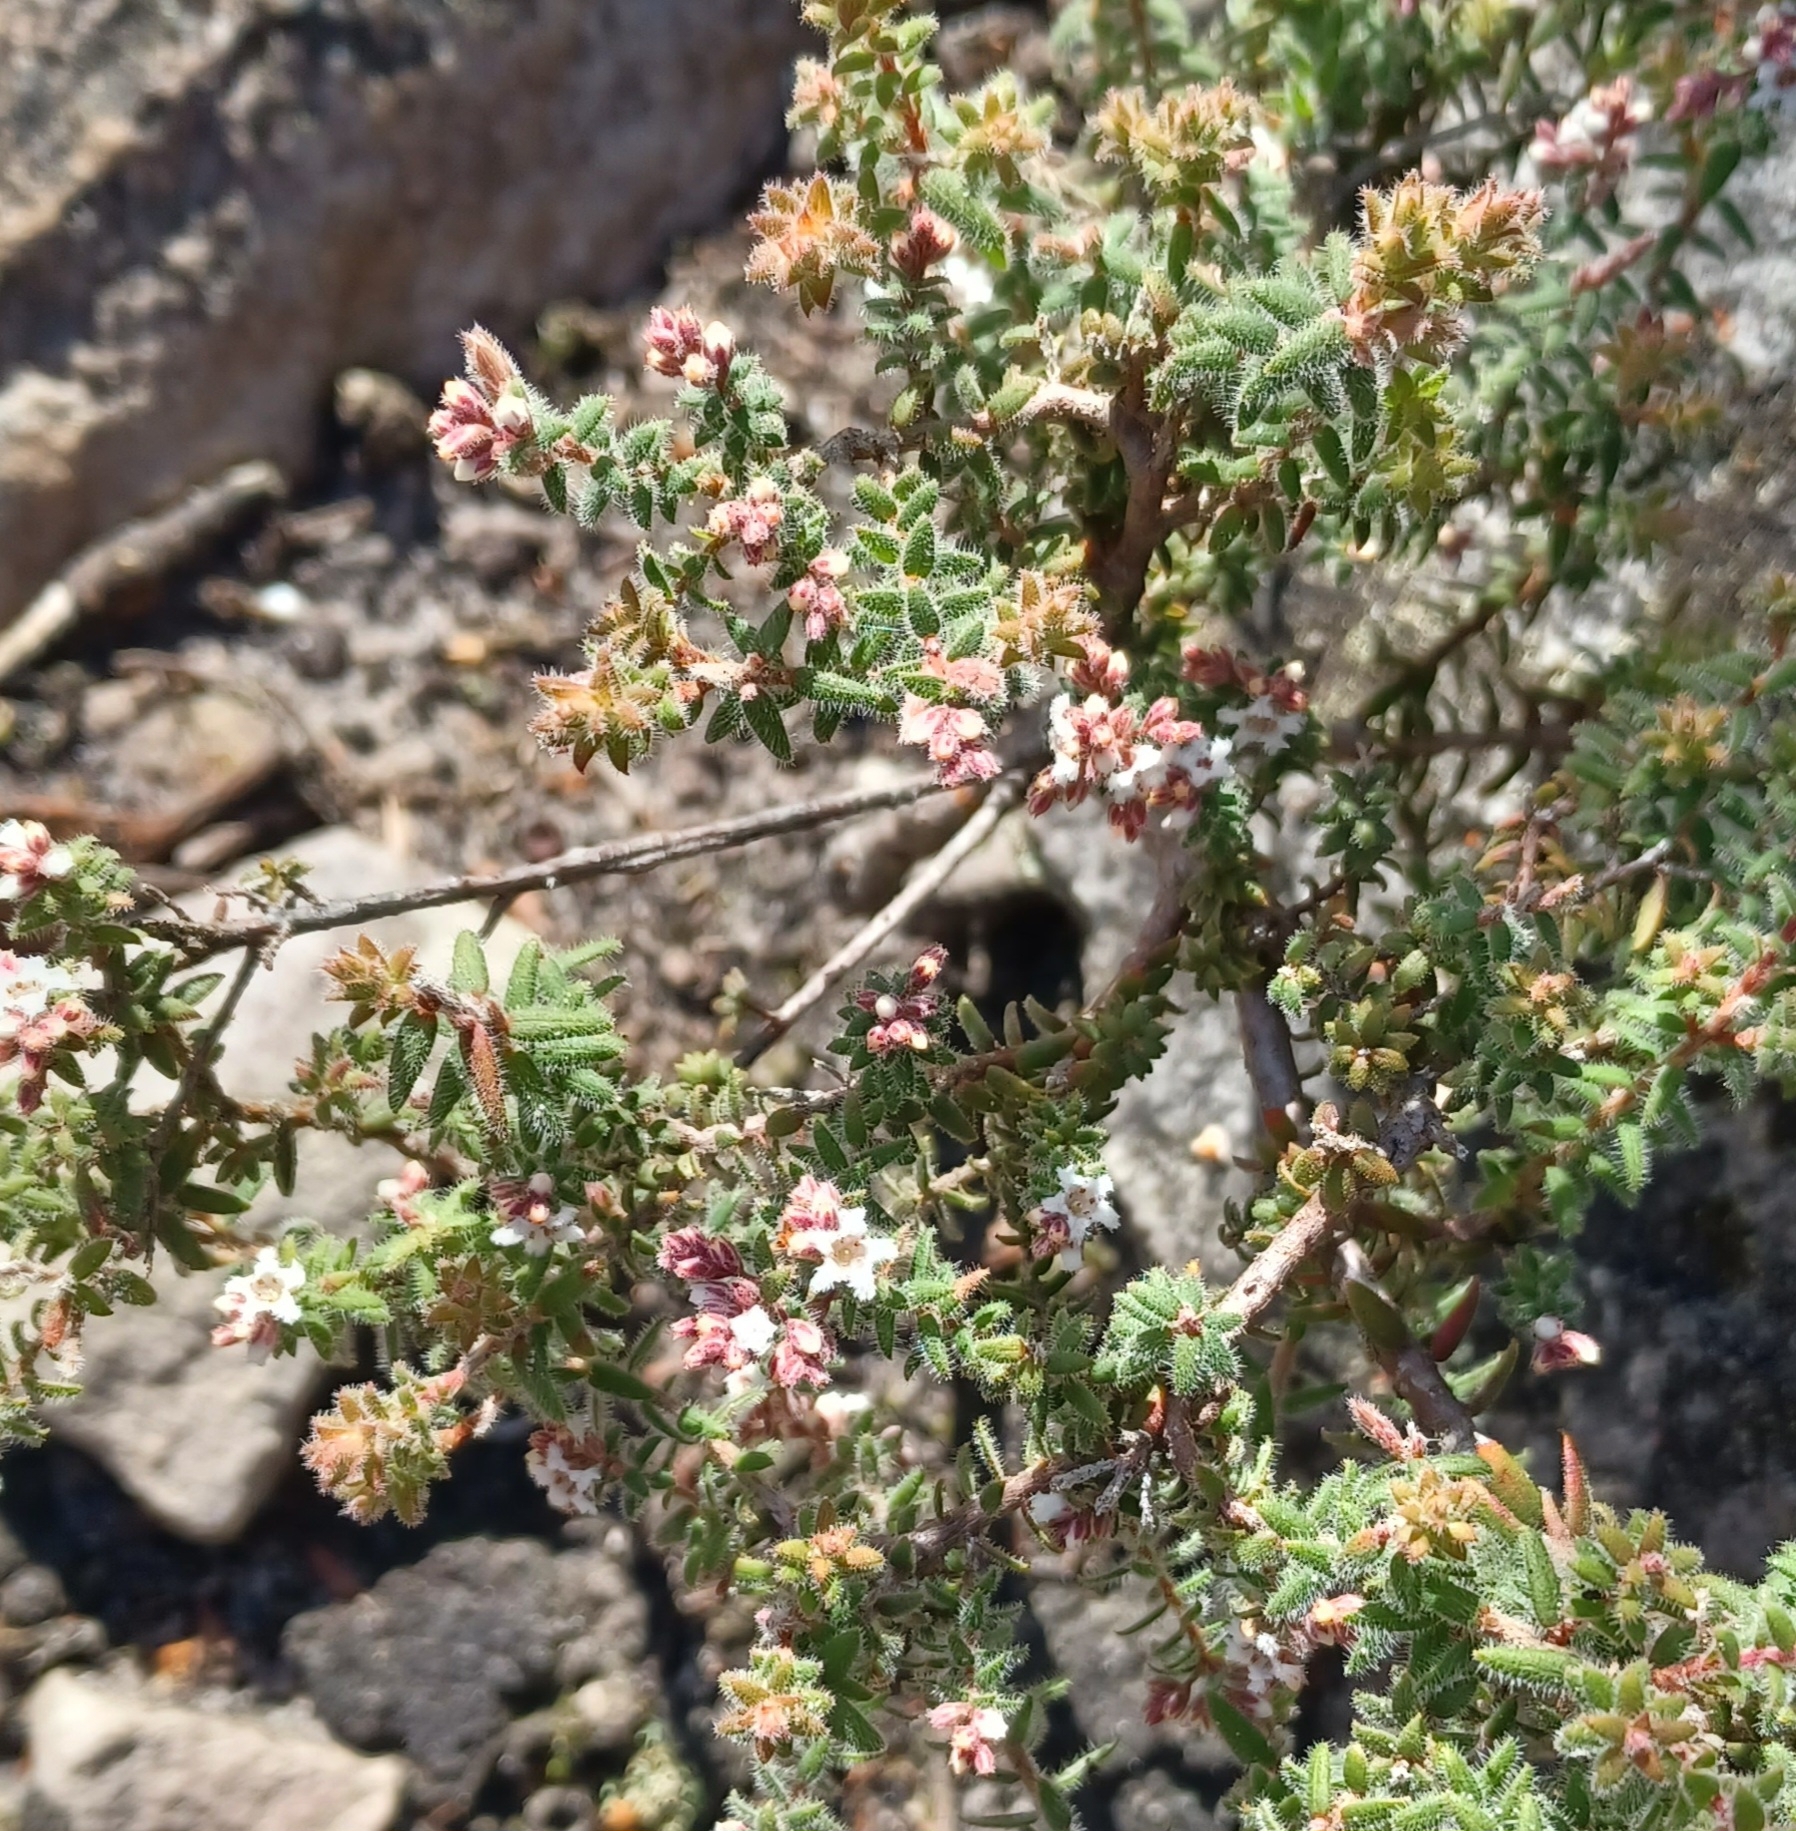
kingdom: Plantae
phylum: Tracheophyta
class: Magnoliopsida
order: Ericales
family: Ericaceae
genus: Leucopogon
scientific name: Leucopogon thymifolius
